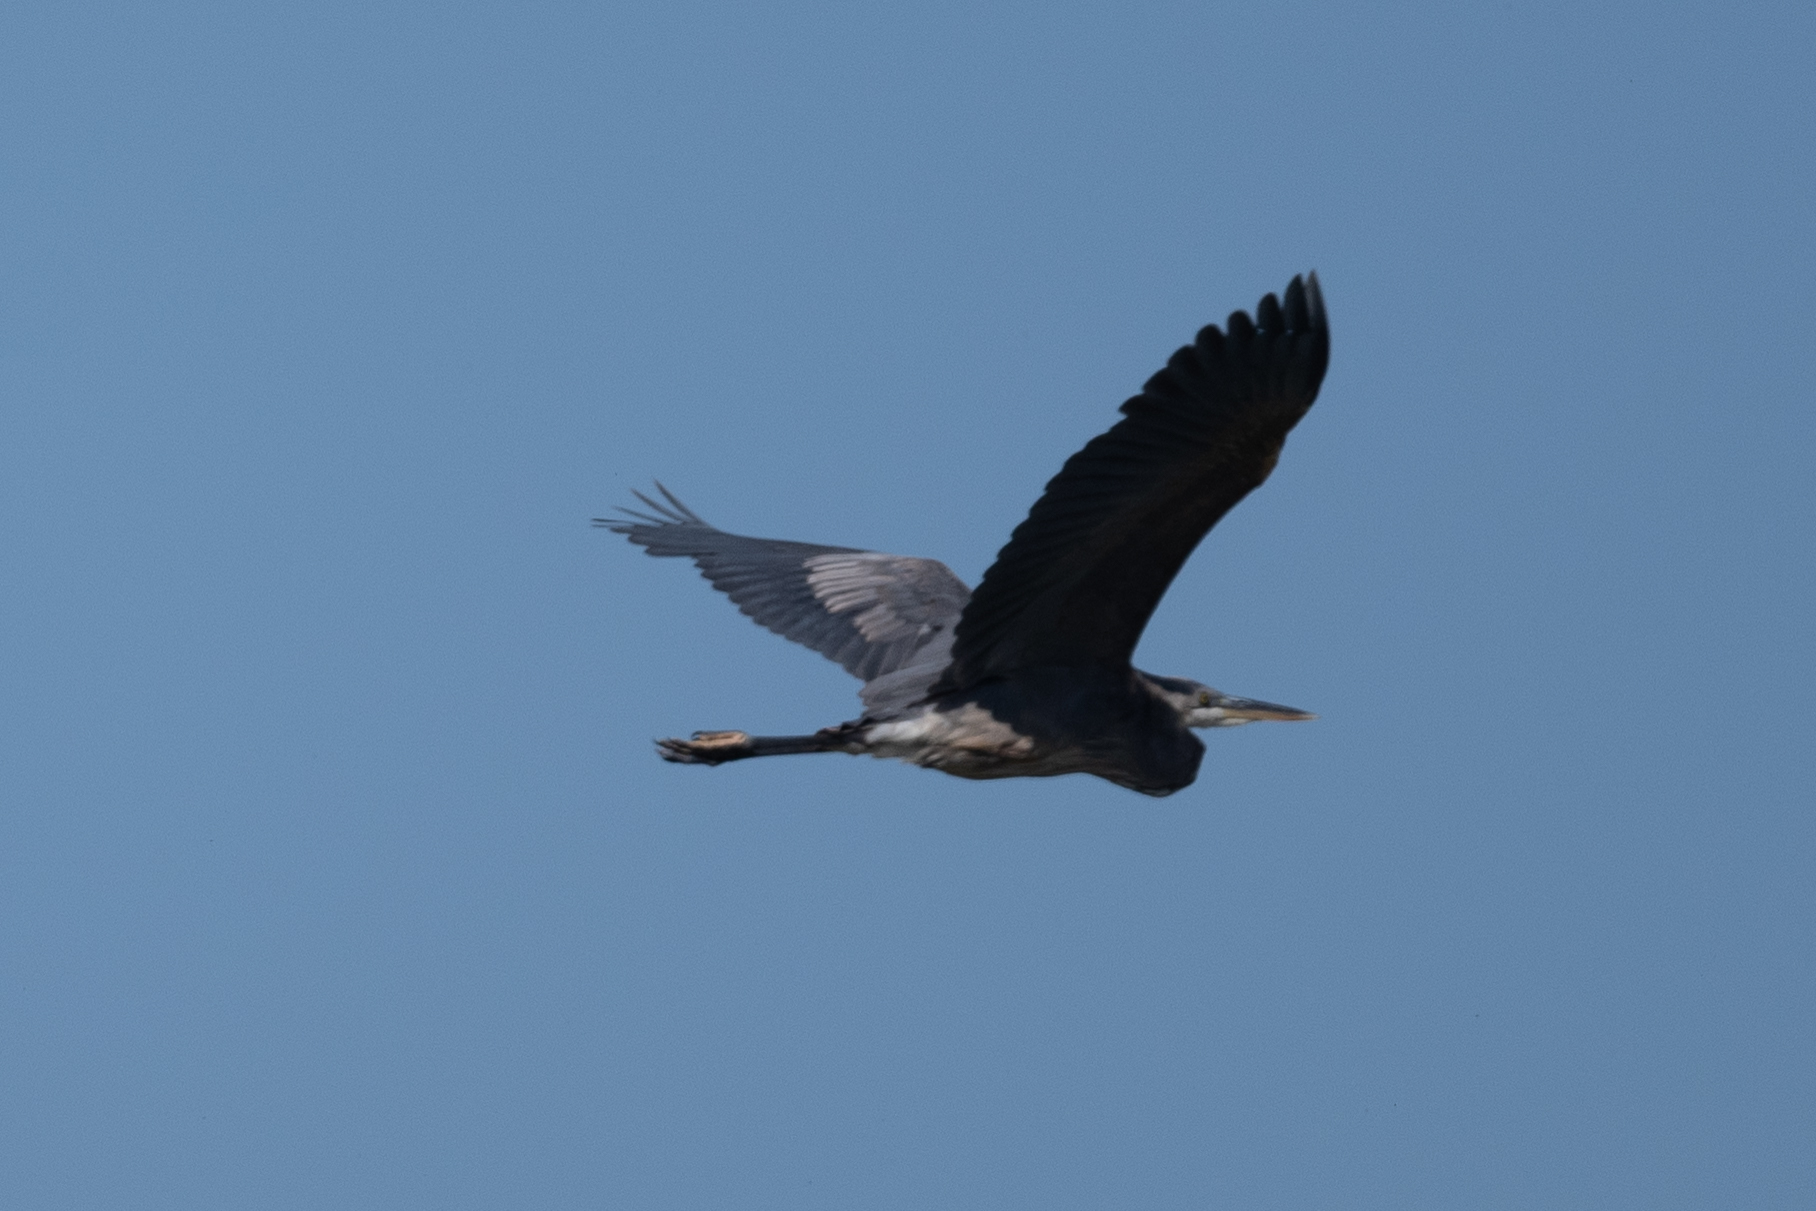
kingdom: Animalia
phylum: Chordata
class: Aves
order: Pelecaniformes
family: Ardeidae
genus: Ardea
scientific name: Ardea herodias
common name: Great blue heron
